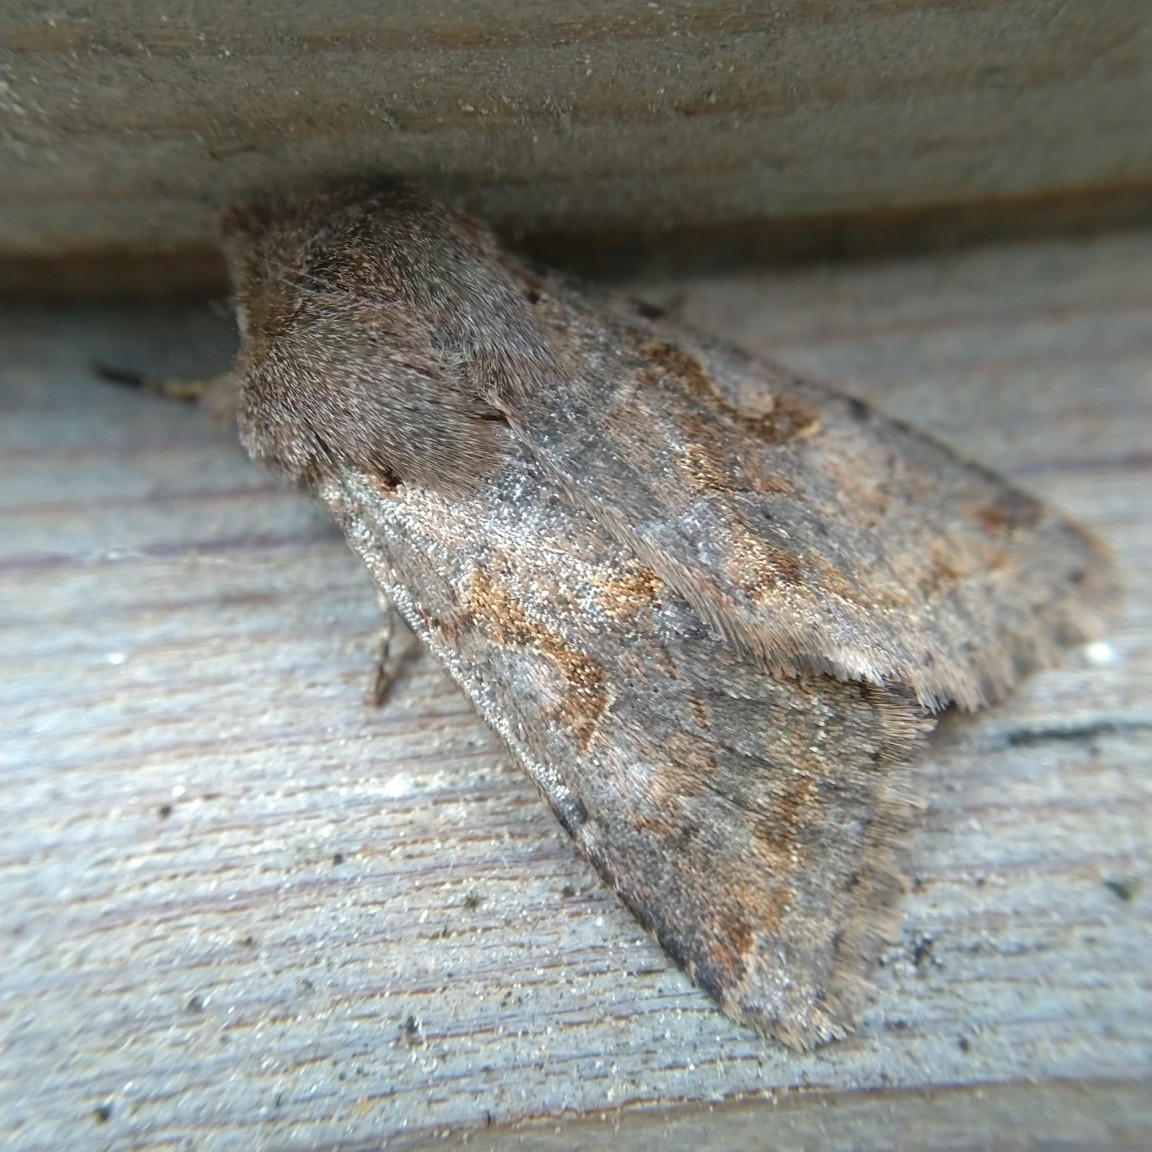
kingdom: Animalia
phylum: Arthropoda
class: Insecta
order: Lepidoptera
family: Noctuidae
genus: Orthosia
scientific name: Orthosia gothica
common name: Hebrew character
